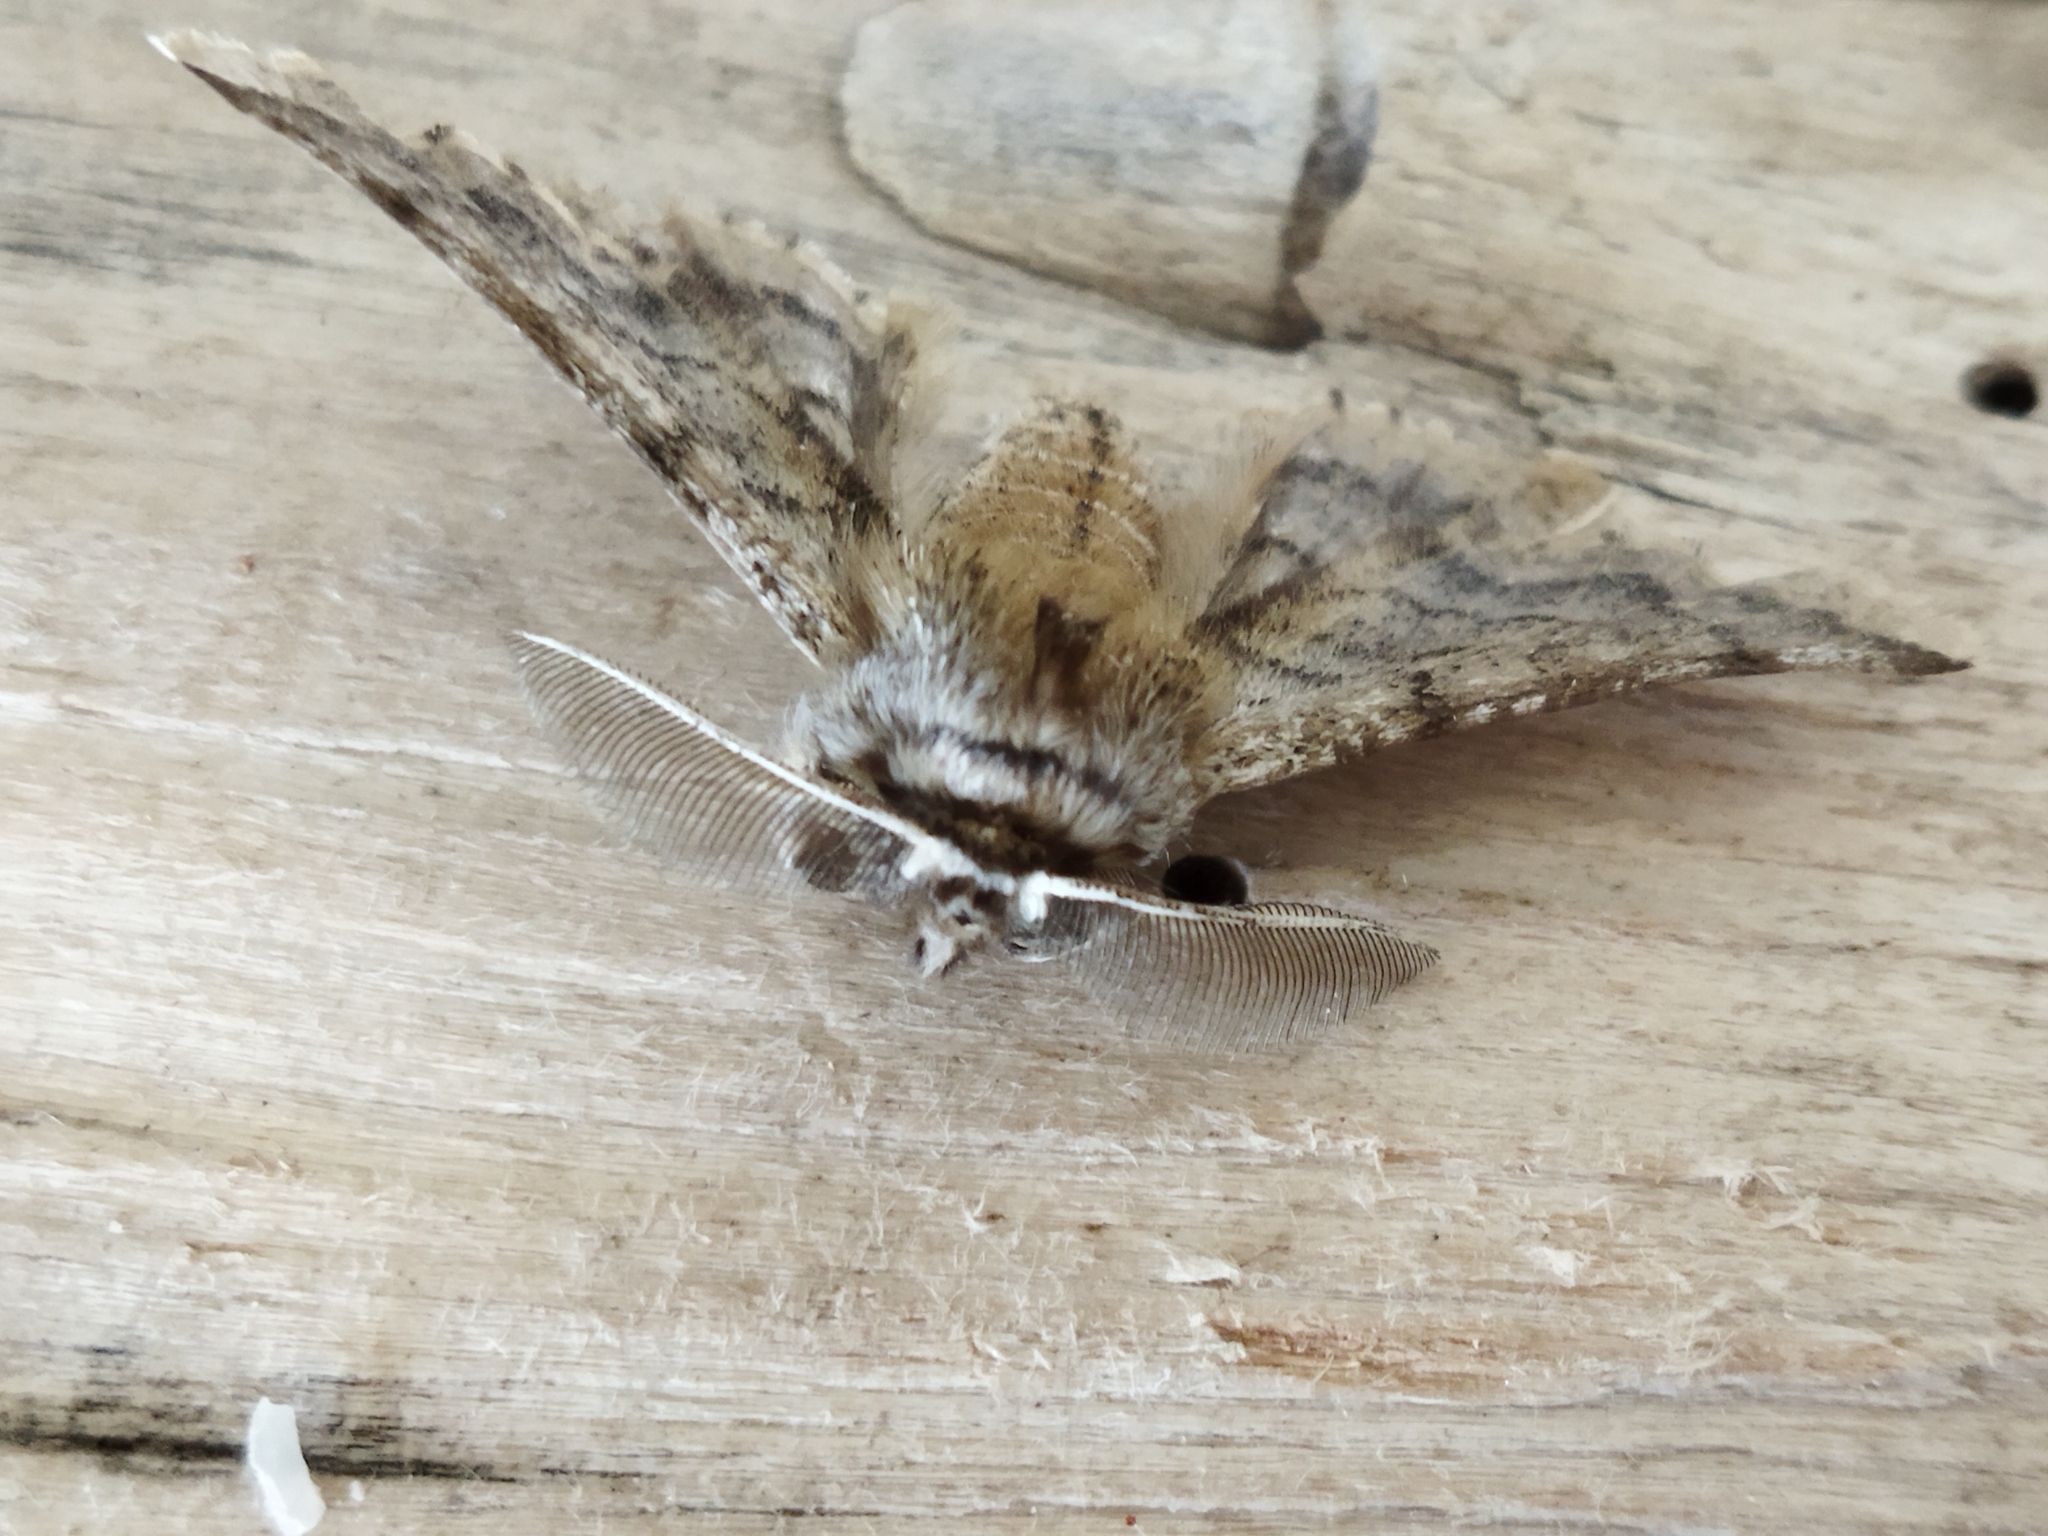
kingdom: Animalia
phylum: Arthropoda
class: Insecta
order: Lepidoptera
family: Geometridae
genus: Apochima
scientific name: Apochima flabellaria
